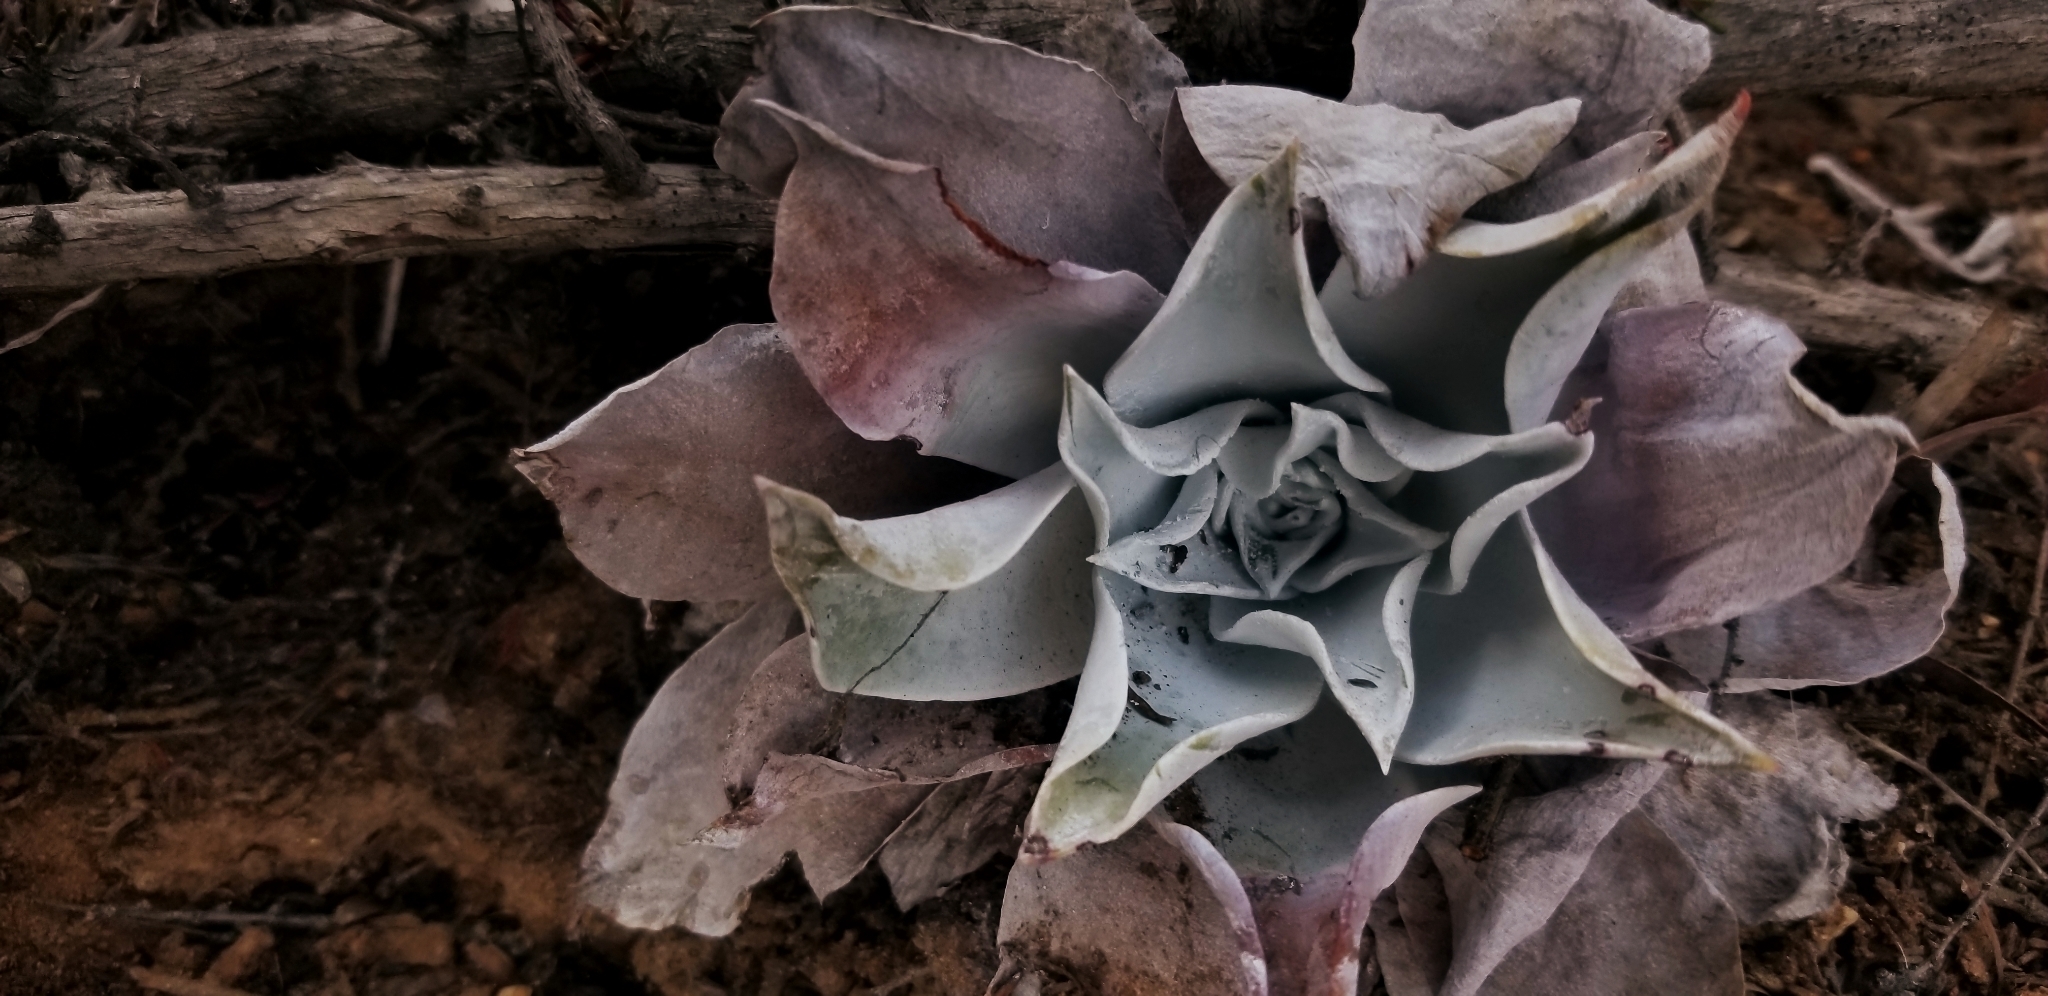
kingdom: Plantae
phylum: Tracheophyta
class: Magnoliopsida
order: Saxifragales
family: Crassulaceae
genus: Dudleya
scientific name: Dudleya pulverulenta
